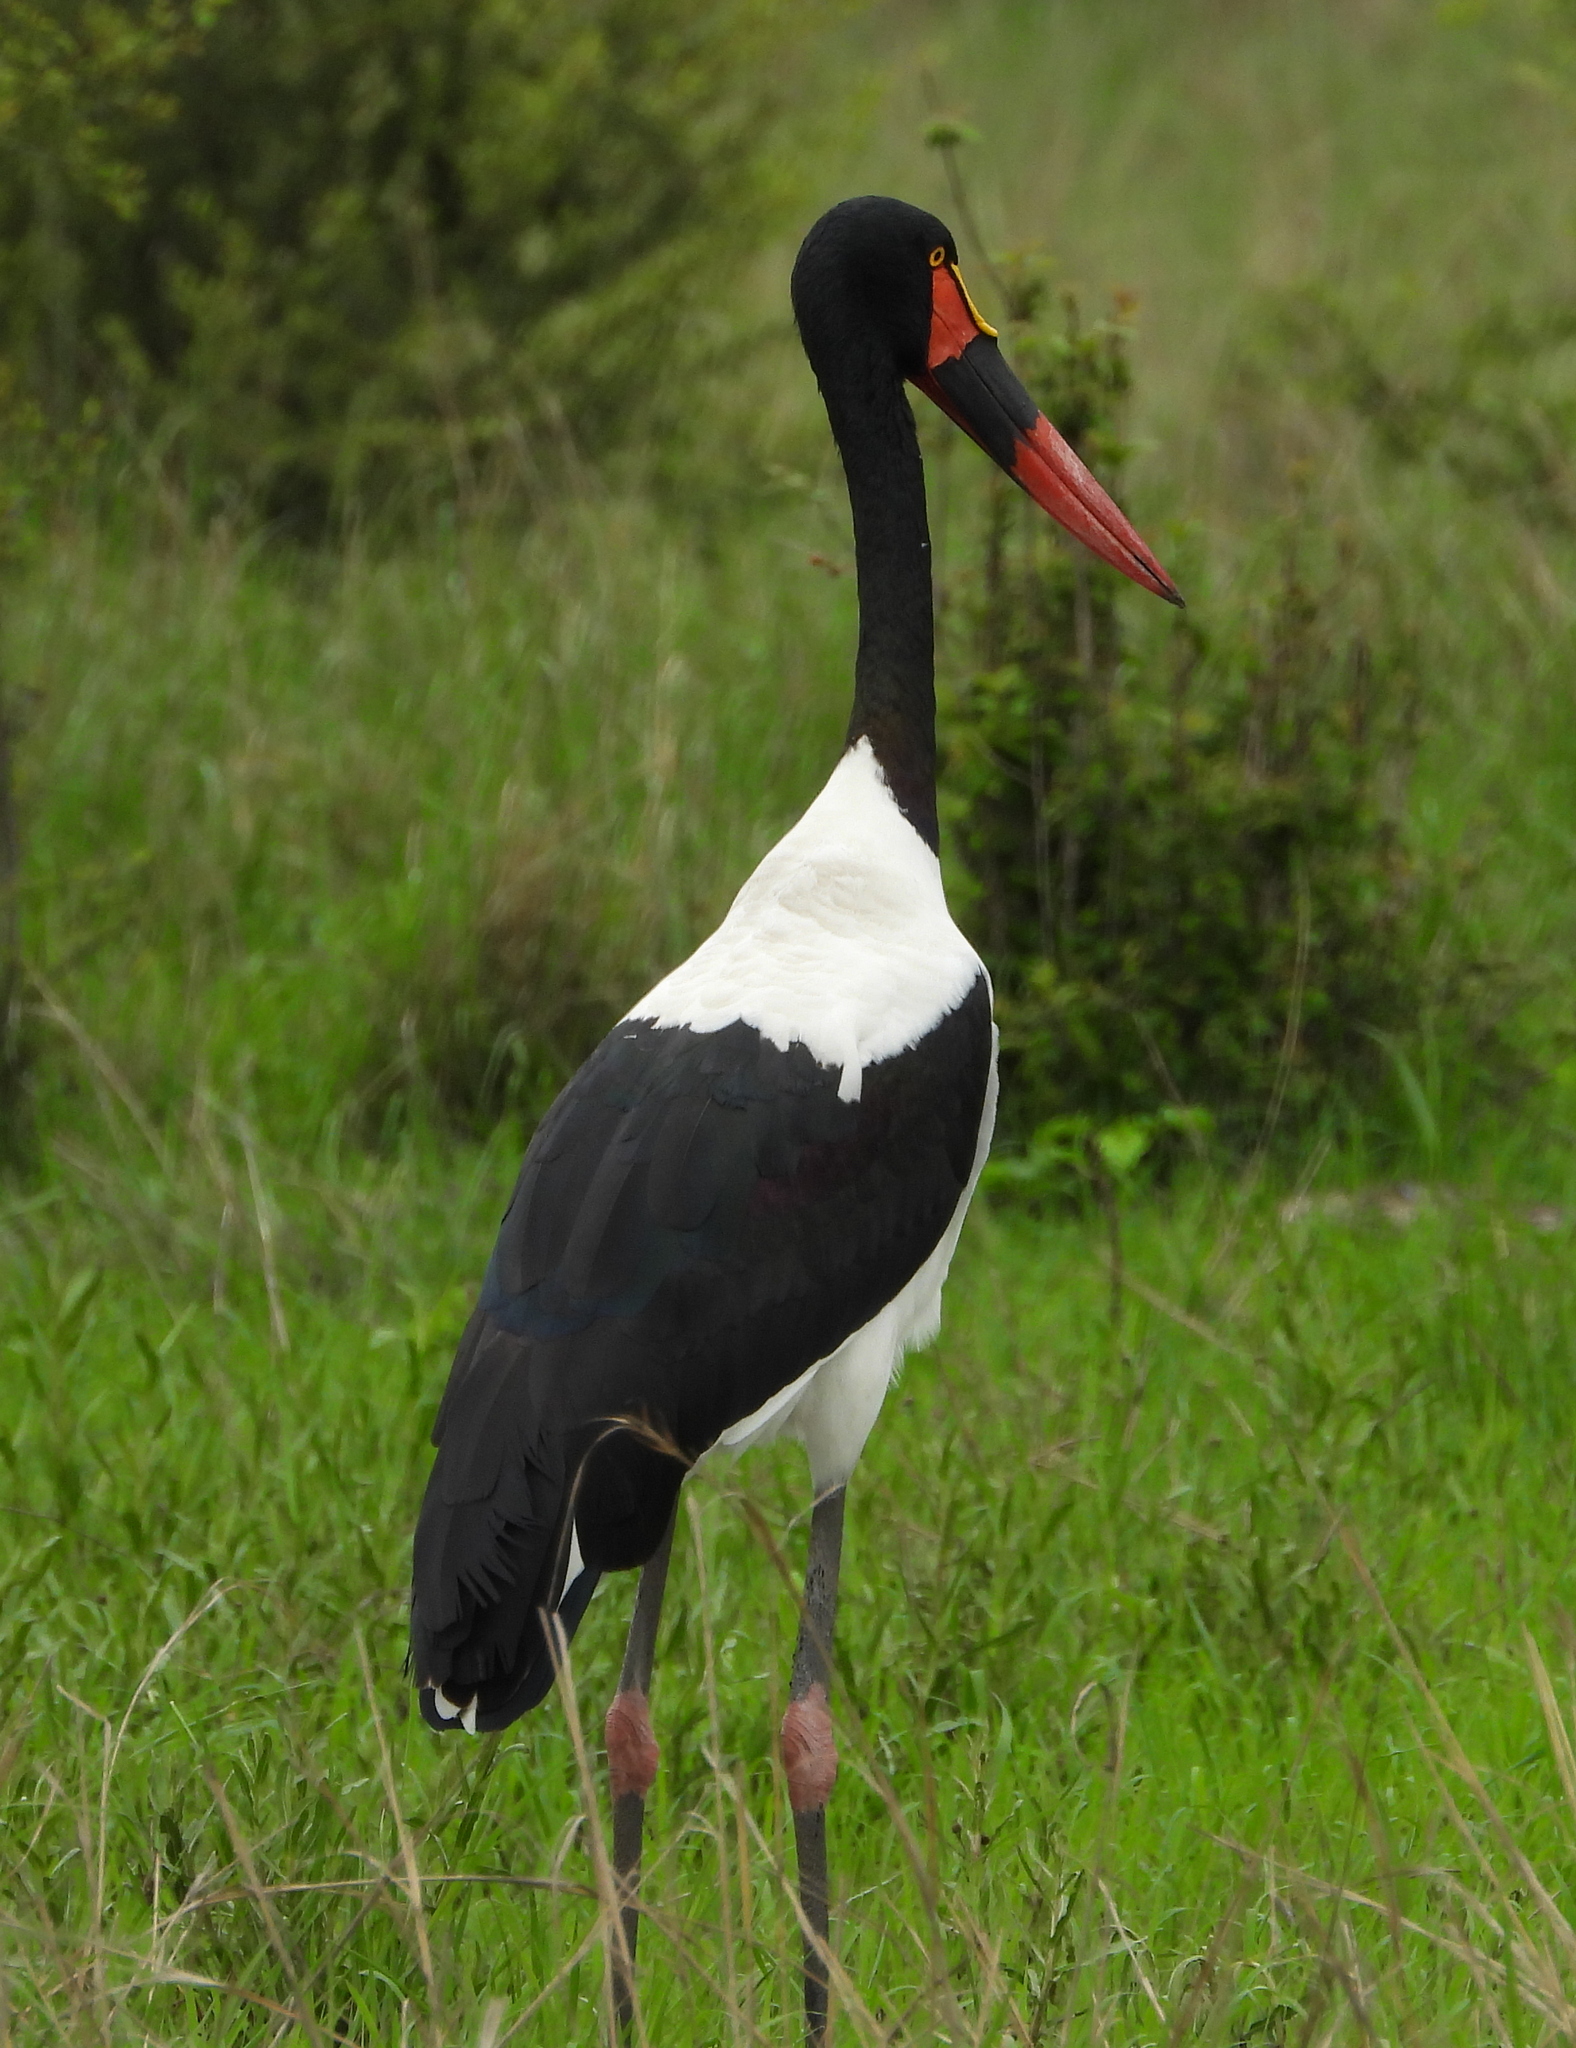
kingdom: Animalia
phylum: Chordata
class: Aves
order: Ciconiiformes
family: Ciconiidae
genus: Ephippiorhynchus
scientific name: Ephippiorhynchus senegalensis
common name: Saddle-billed stork
